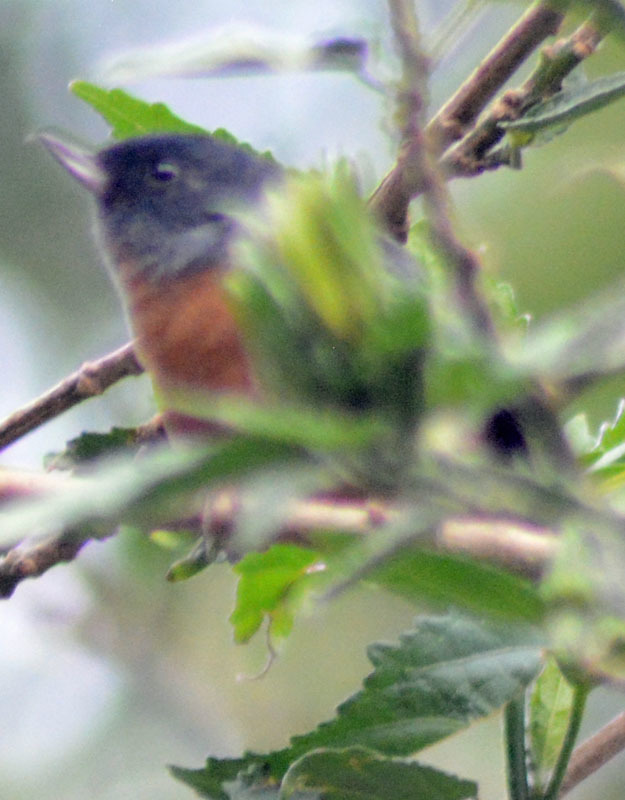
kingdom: Animalia
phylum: Chordata
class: Aves
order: Passeriformes
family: Thraupidae
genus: Diglossa
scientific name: Diglossa baritula
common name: Cinnamon-bellied flowerpiercer
